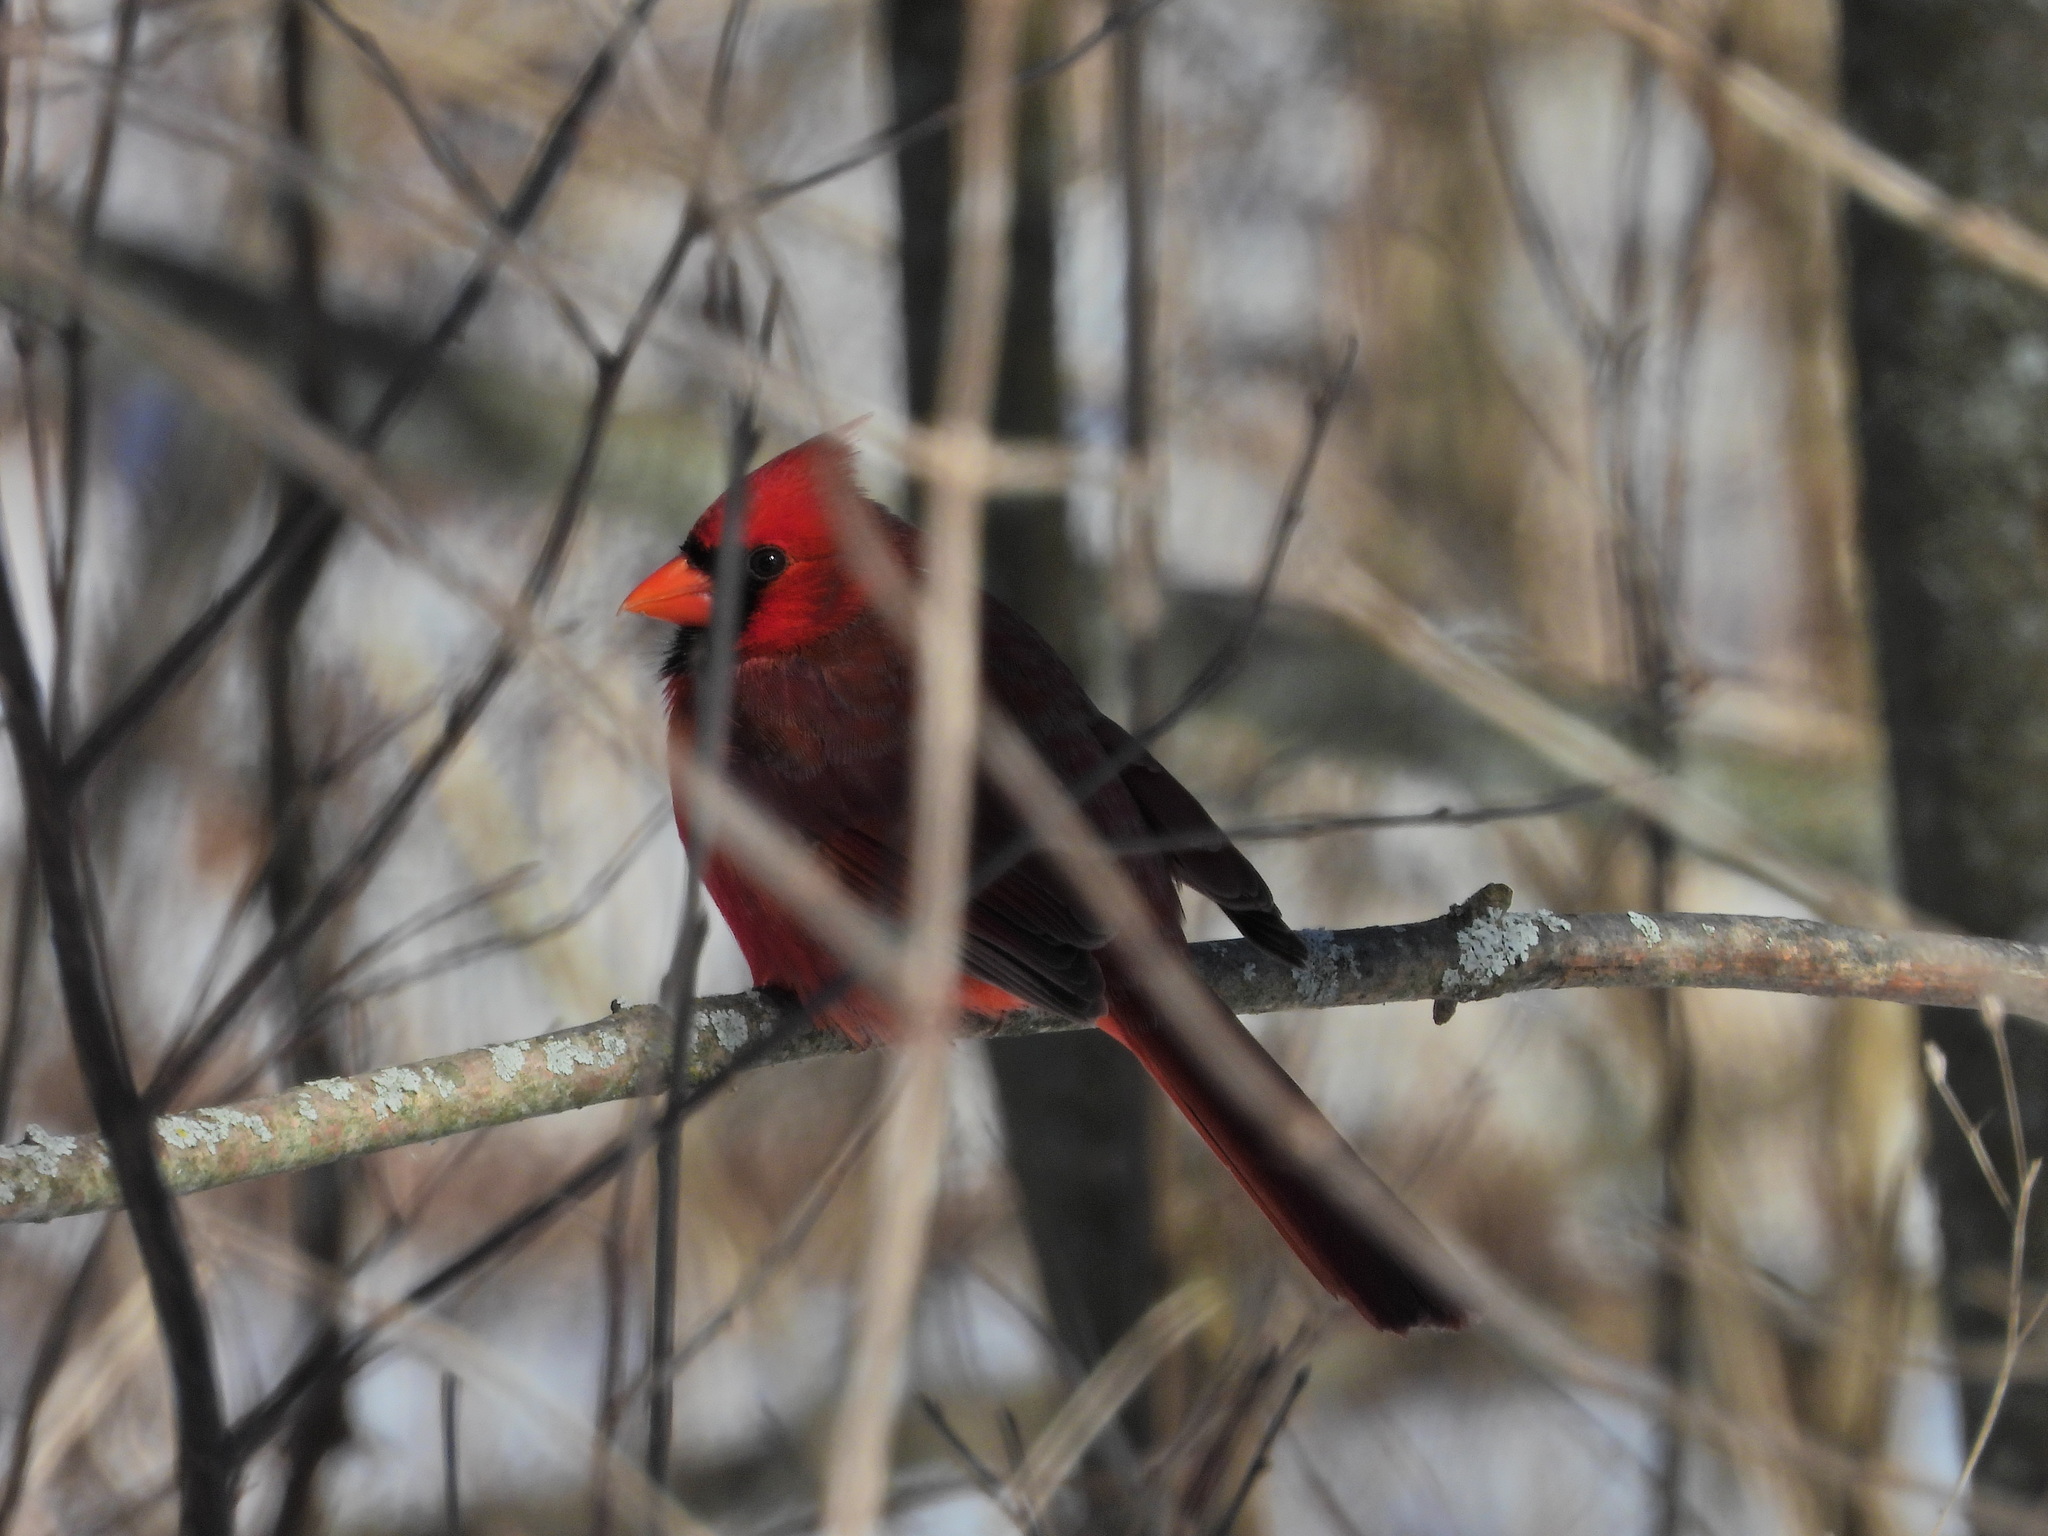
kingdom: Animalia
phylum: Chordata
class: Aves
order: Passeriformes
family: Cardinalidae
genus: Cardinalis
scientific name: Cardinalis cardinalis
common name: Northern cardinal
